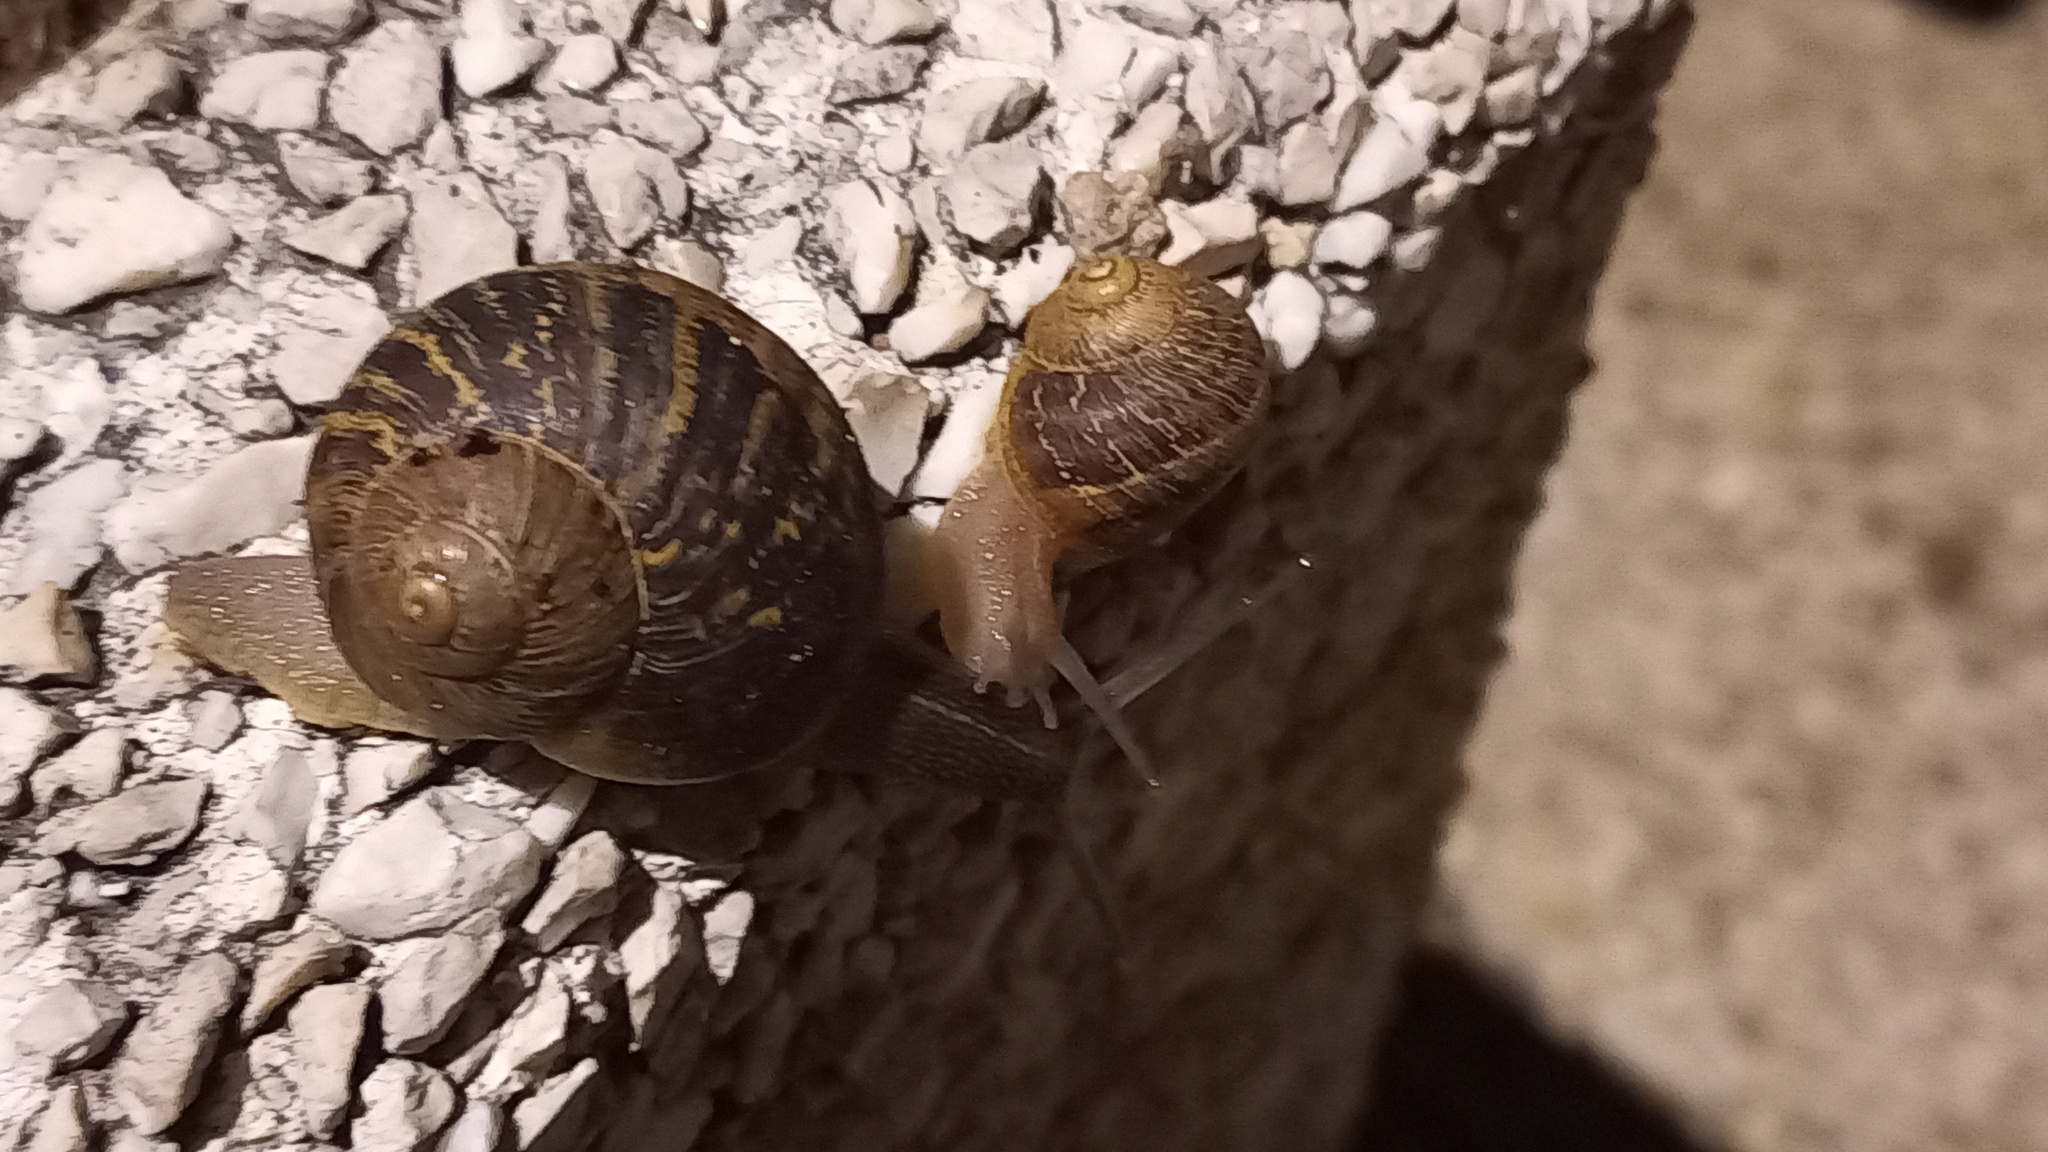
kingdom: Animalia
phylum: Mollusca
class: Gastropoda
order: Stylommatophora
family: Helicidae
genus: Cornu
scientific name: Cornu aspersum
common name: Brown garden snail
